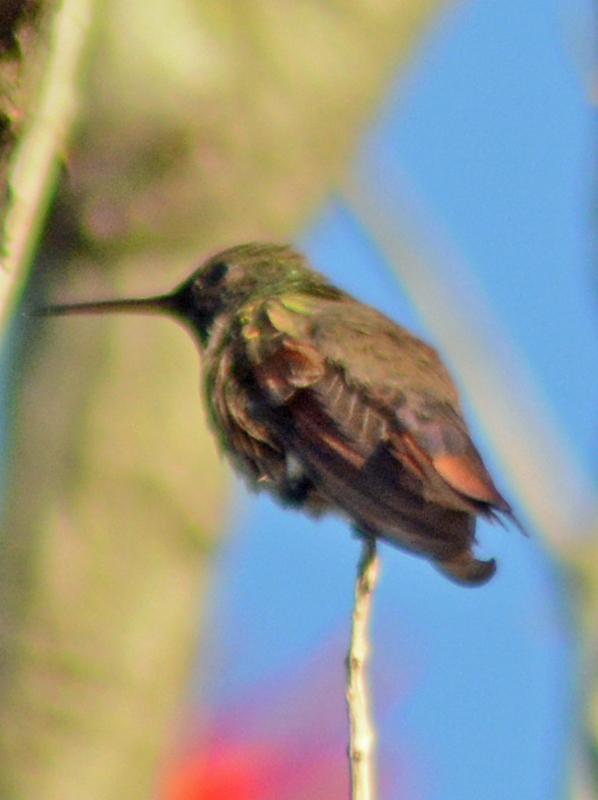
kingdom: Animalia
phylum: Chordata
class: Aves
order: Apodiformes
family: Trochilidae
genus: Saucerottia
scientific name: Saucerottia beryllina
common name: Berylline hummingbird
